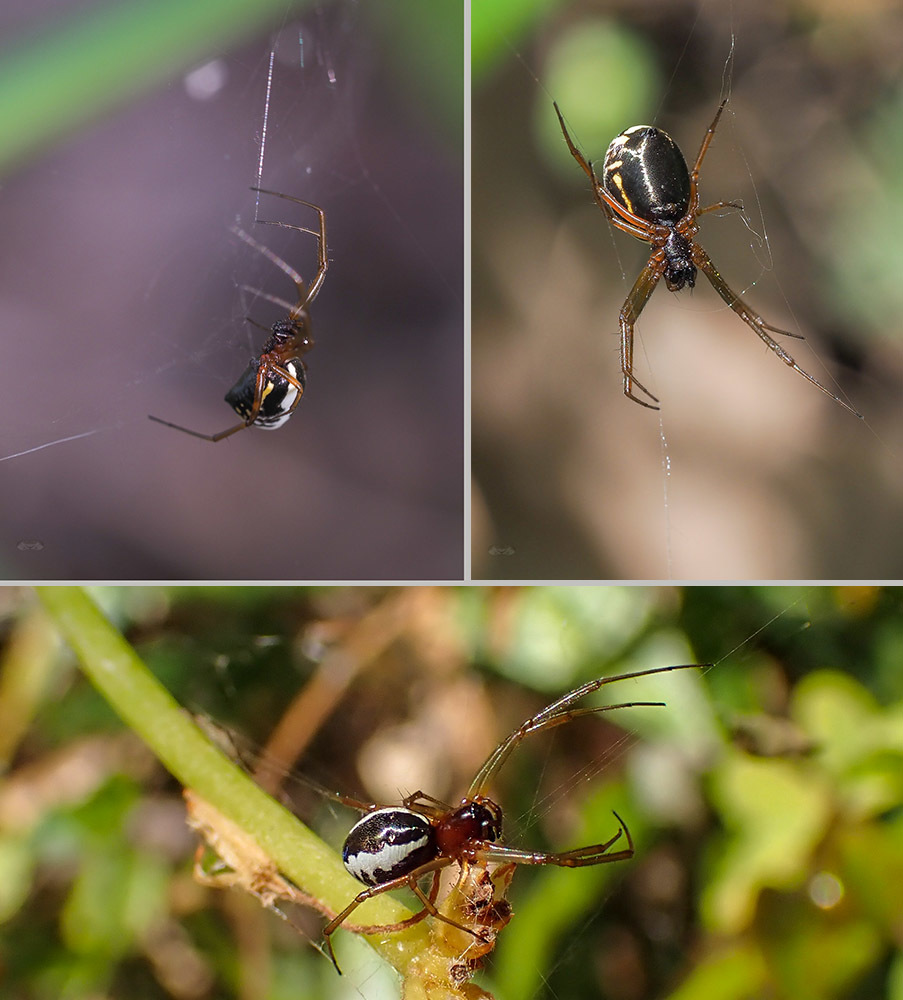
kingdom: Animalia
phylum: Arthropoda
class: Arachnida
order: Araneae
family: Linyphiidae
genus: Frontinellina
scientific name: Frontinellina frutetorum
